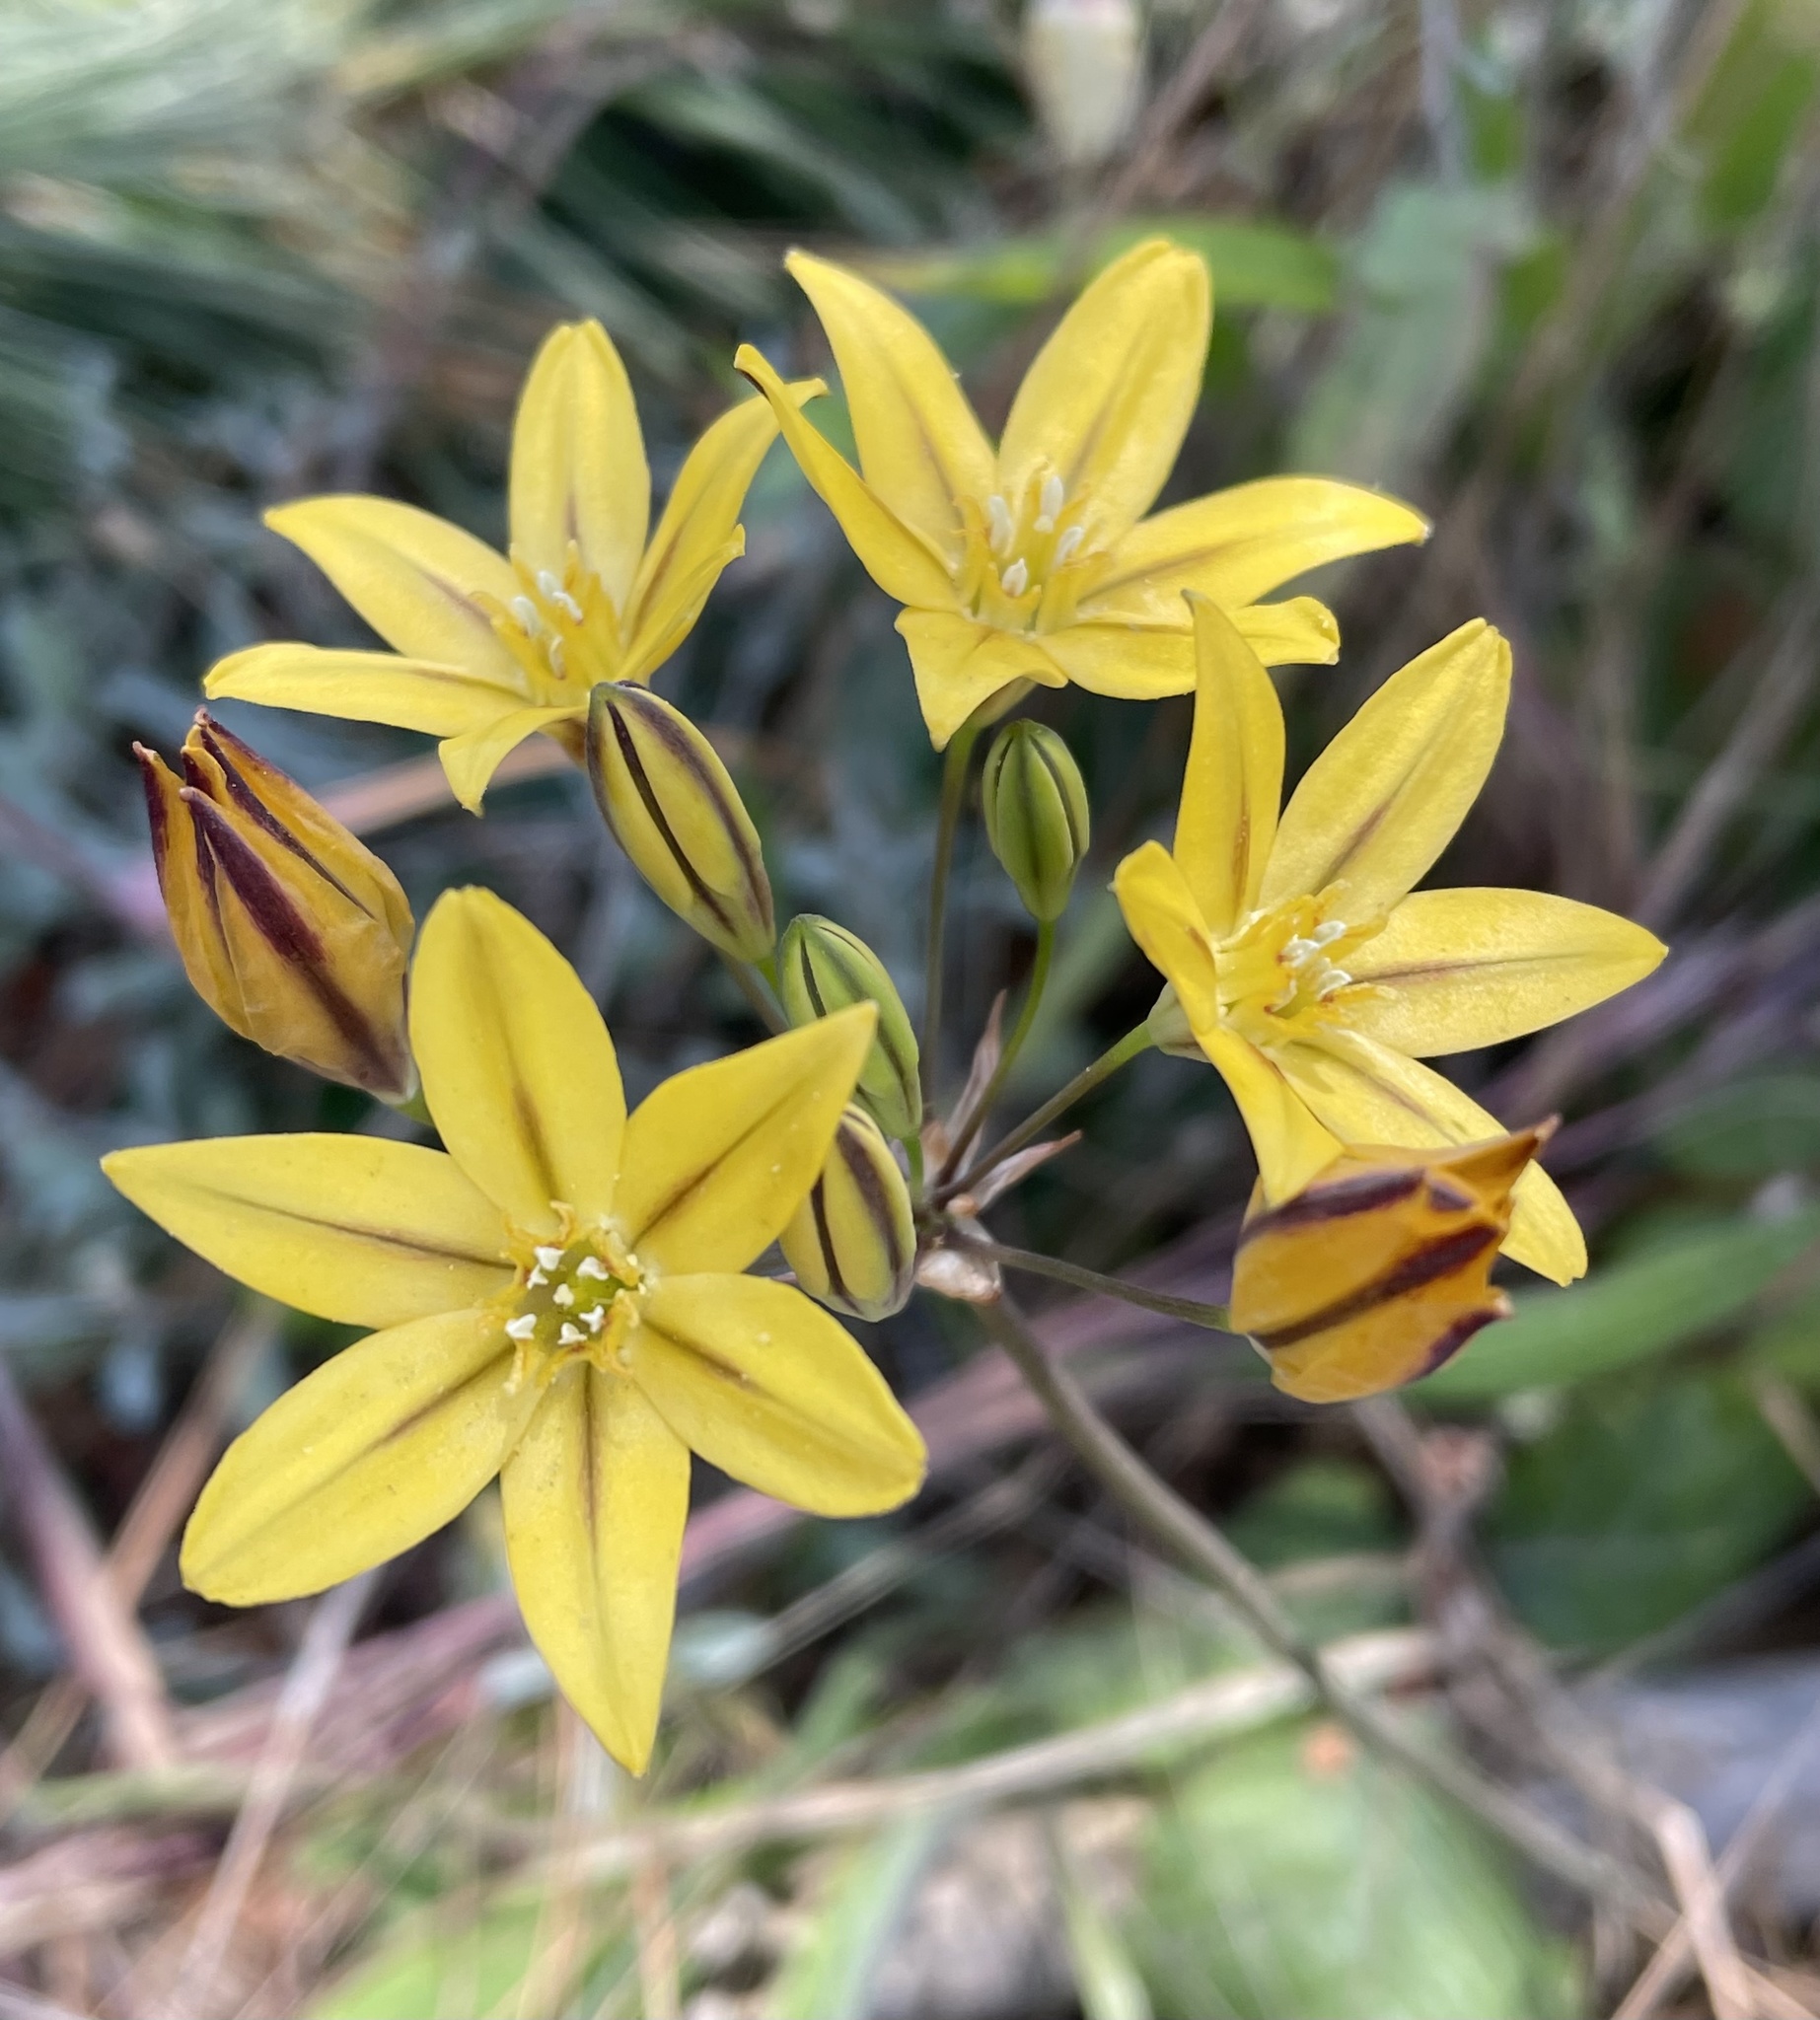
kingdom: Plantae
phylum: Tracheophyta
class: Liliopsida
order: Asparagales
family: Asparagaceae
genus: Triteleia
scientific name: Triteleia ixioides
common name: Yellow-brodiaea
